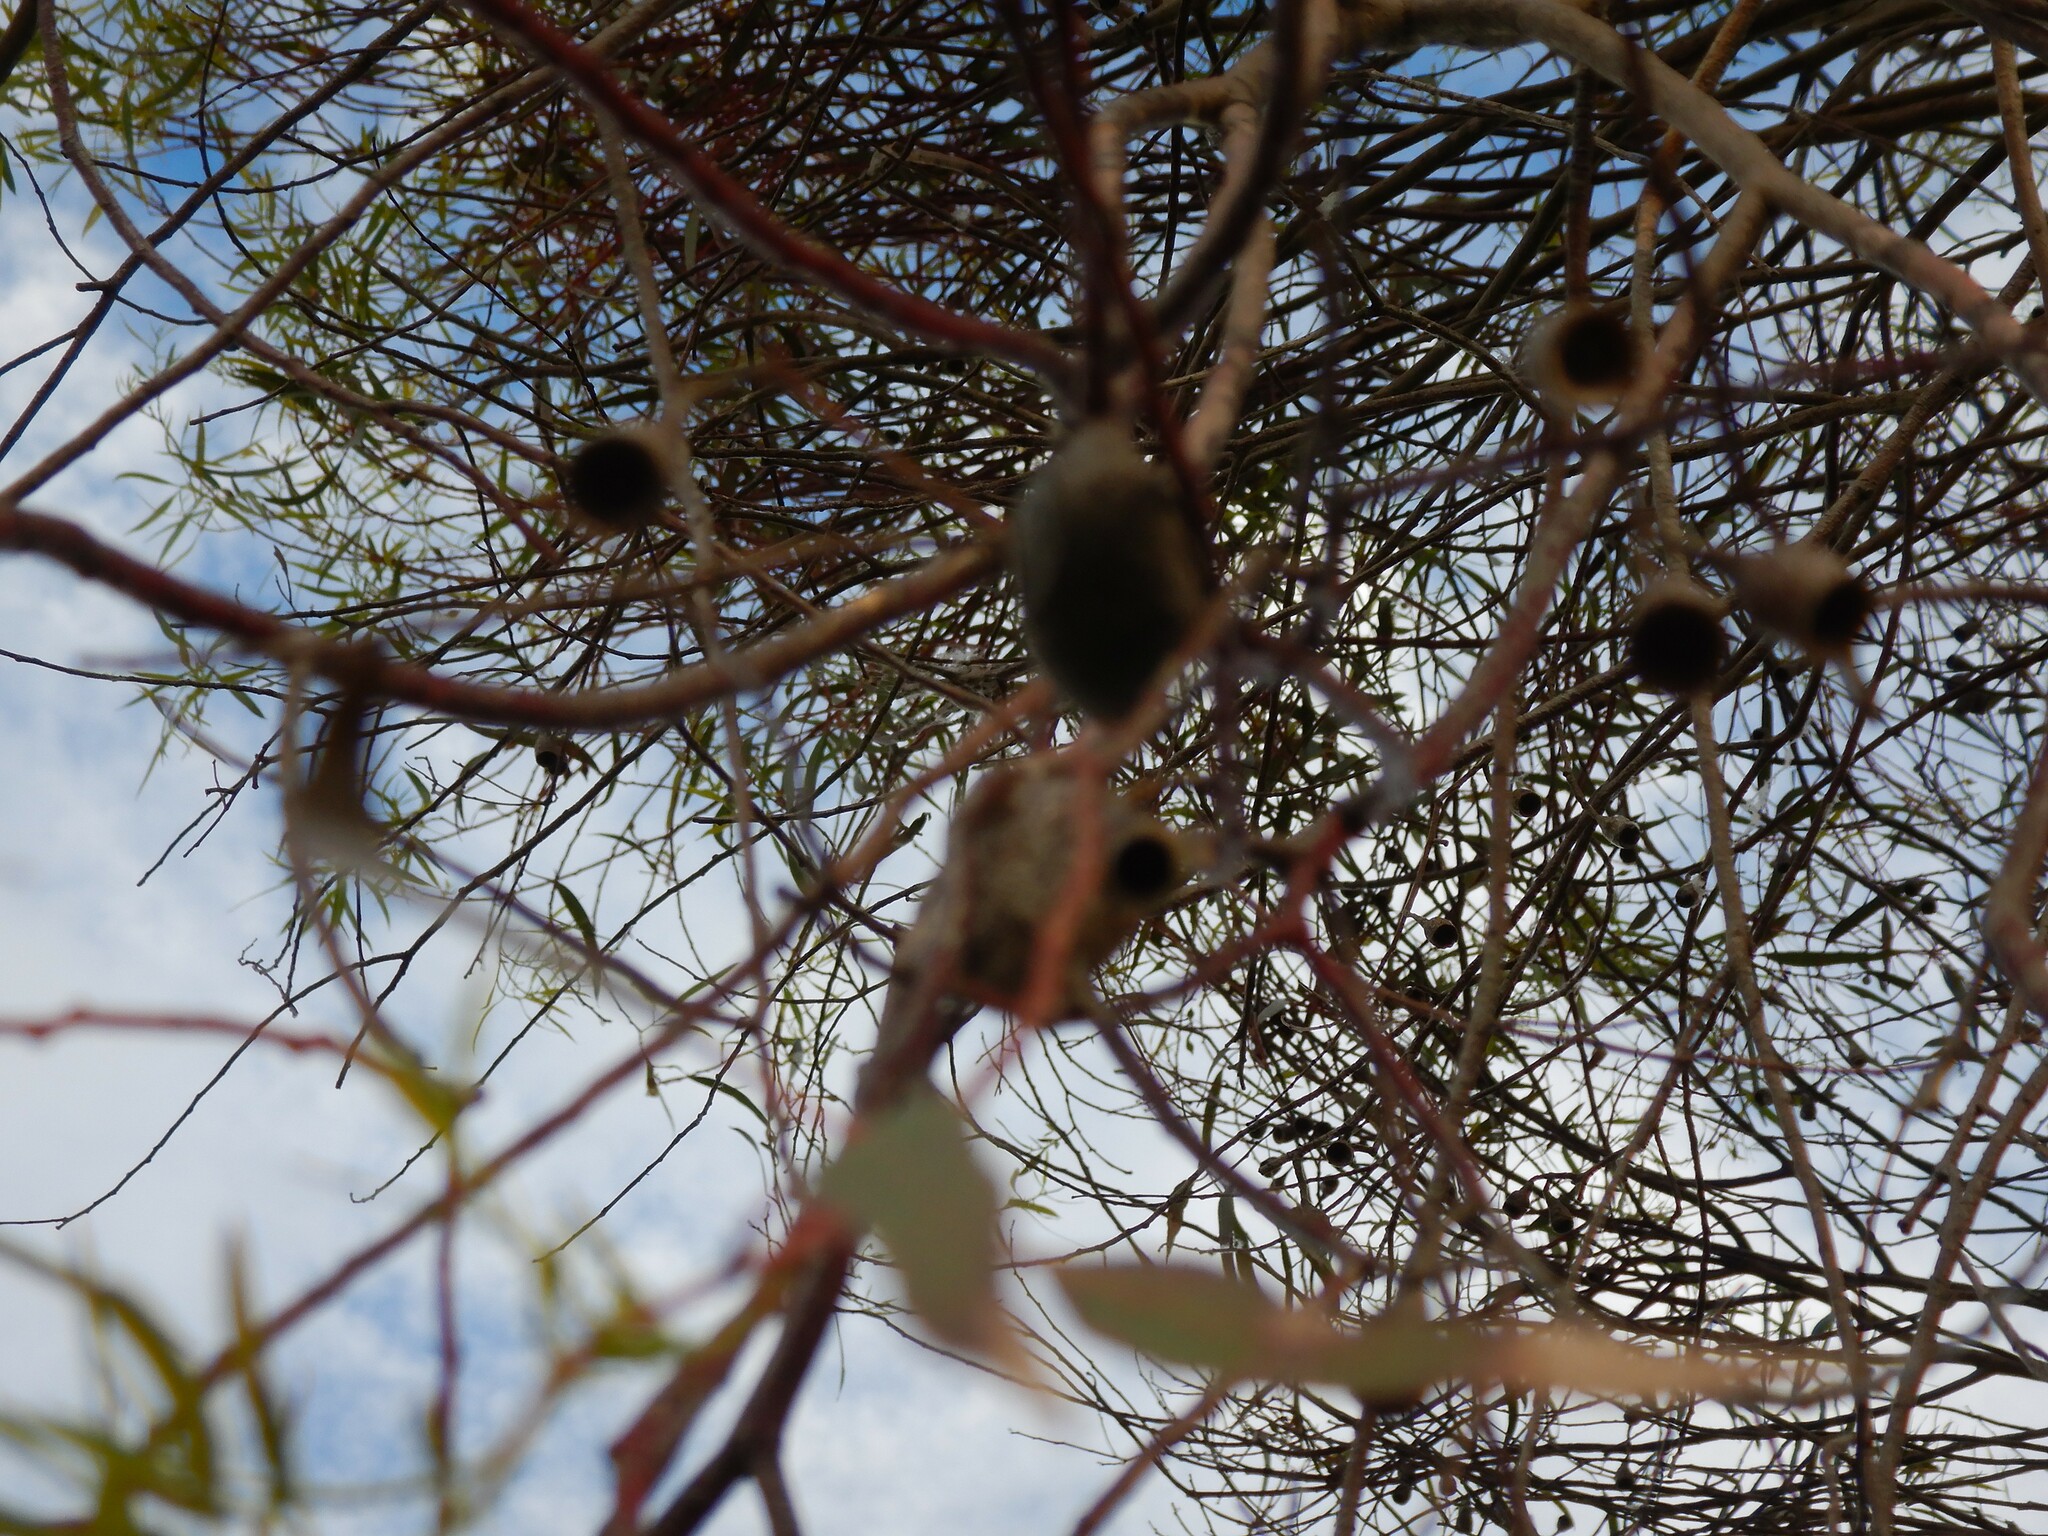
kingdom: Animalia
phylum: Arthropoda
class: Insecta
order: Lepidoptera
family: Saturniidae
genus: Opodiphthera
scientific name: Opodiphthera
